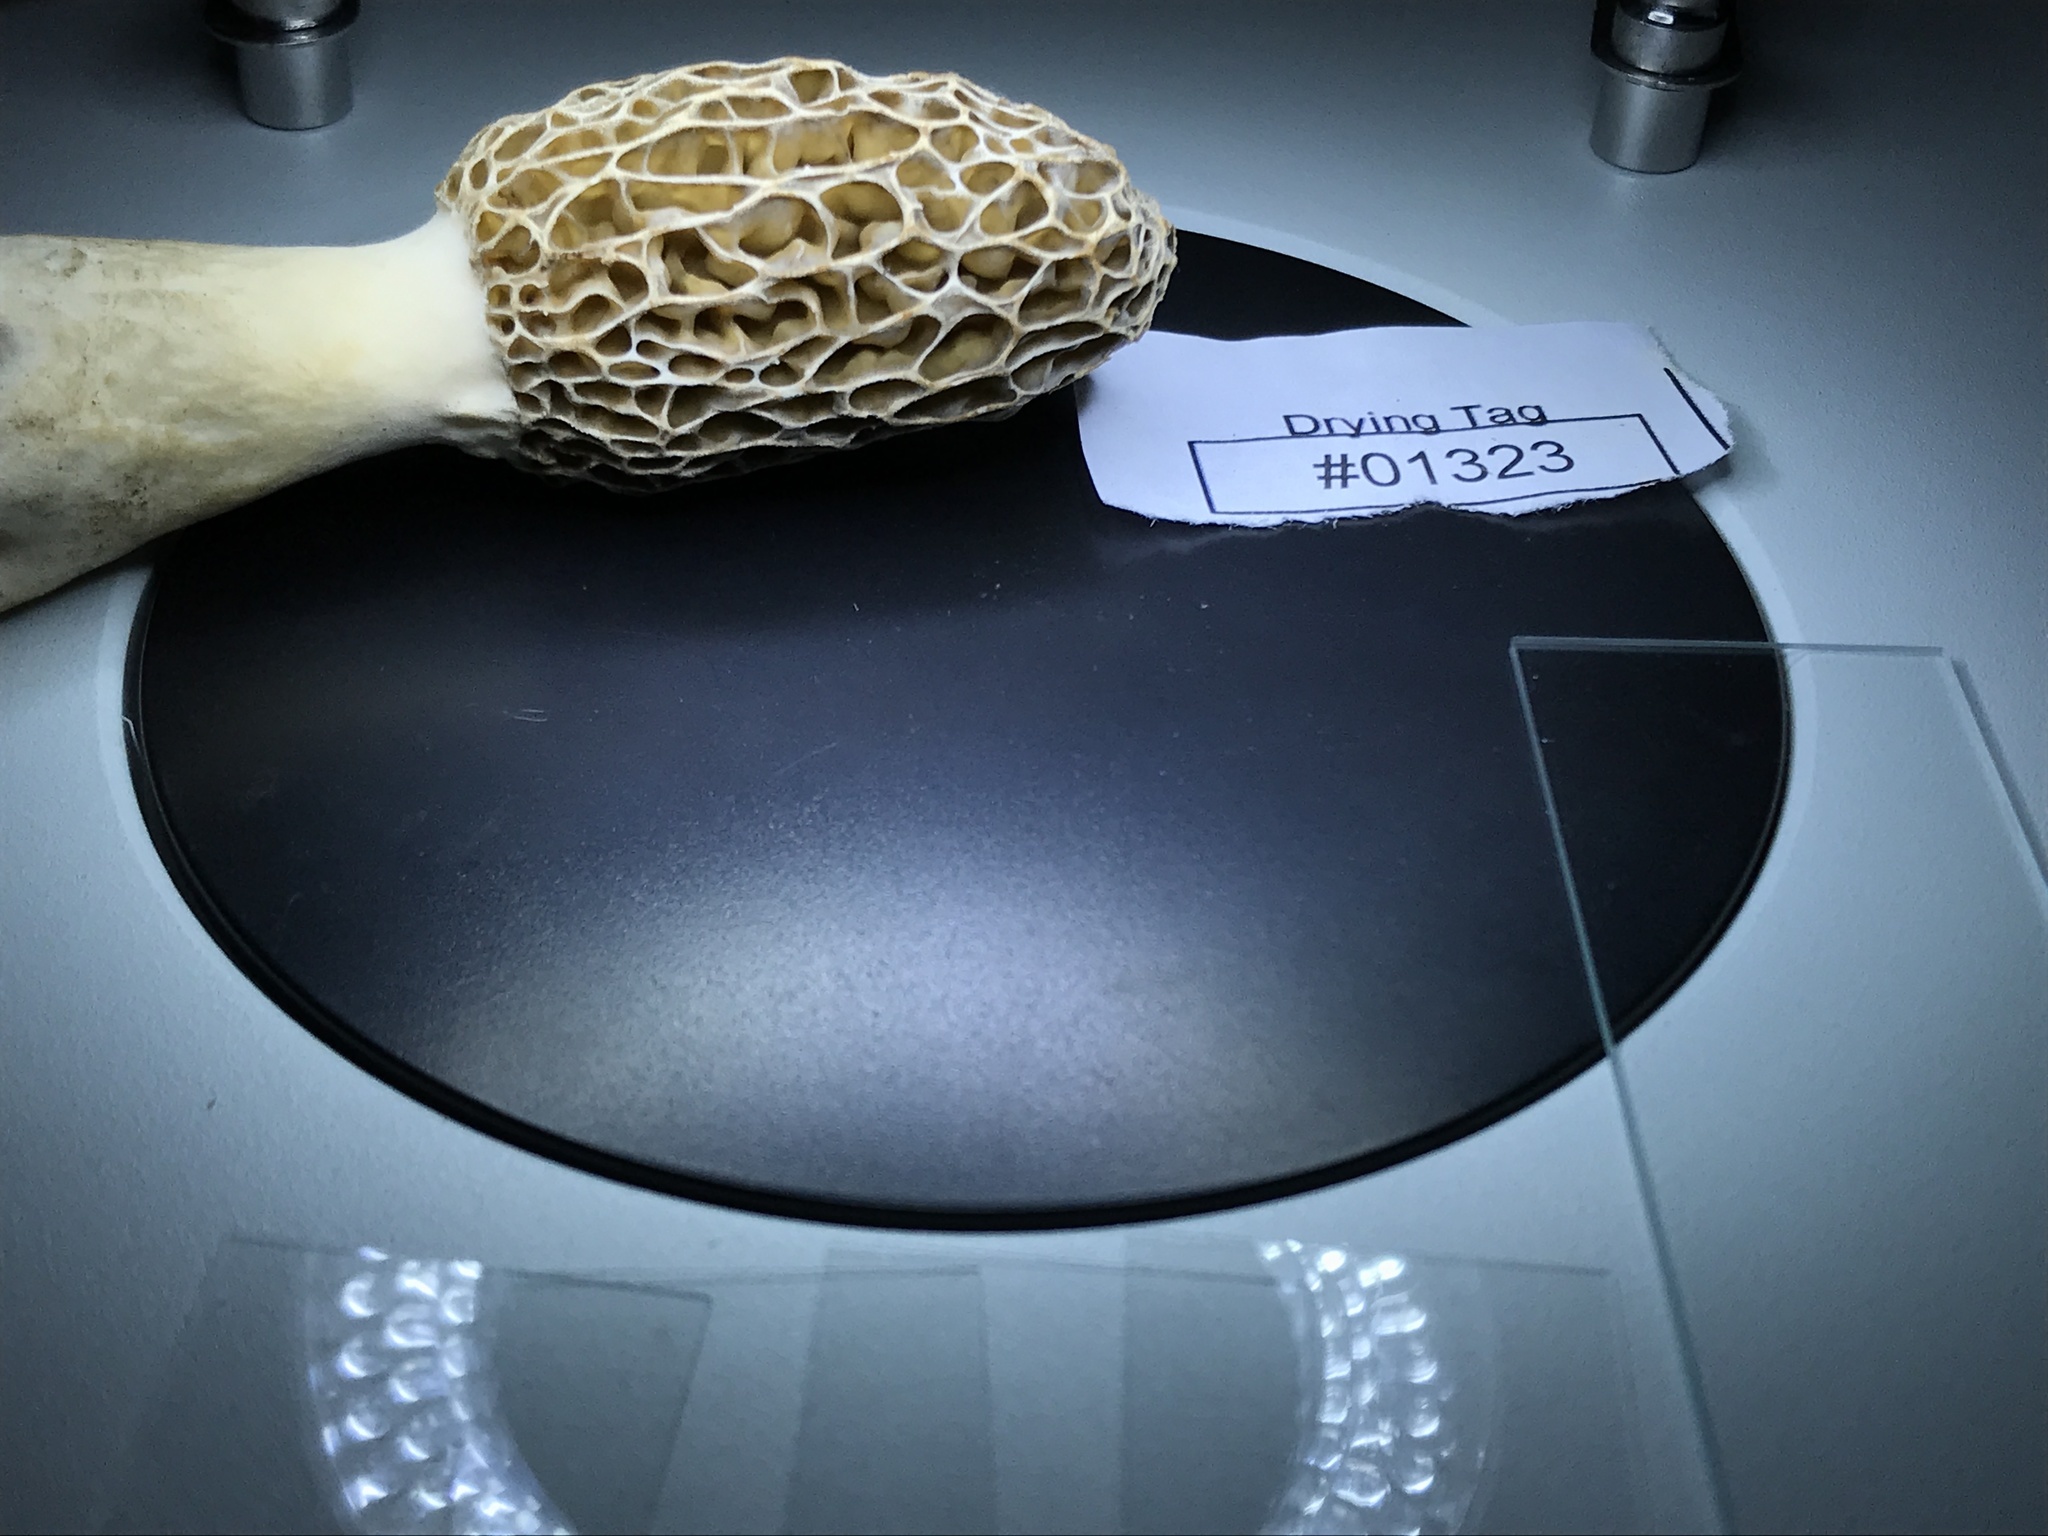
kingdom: Fungi
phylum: Ascomycota
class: Pezizomycetes
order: Pezizales
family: Morchellaceae
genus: Morchella
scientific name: Morchella americana
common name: White morel
